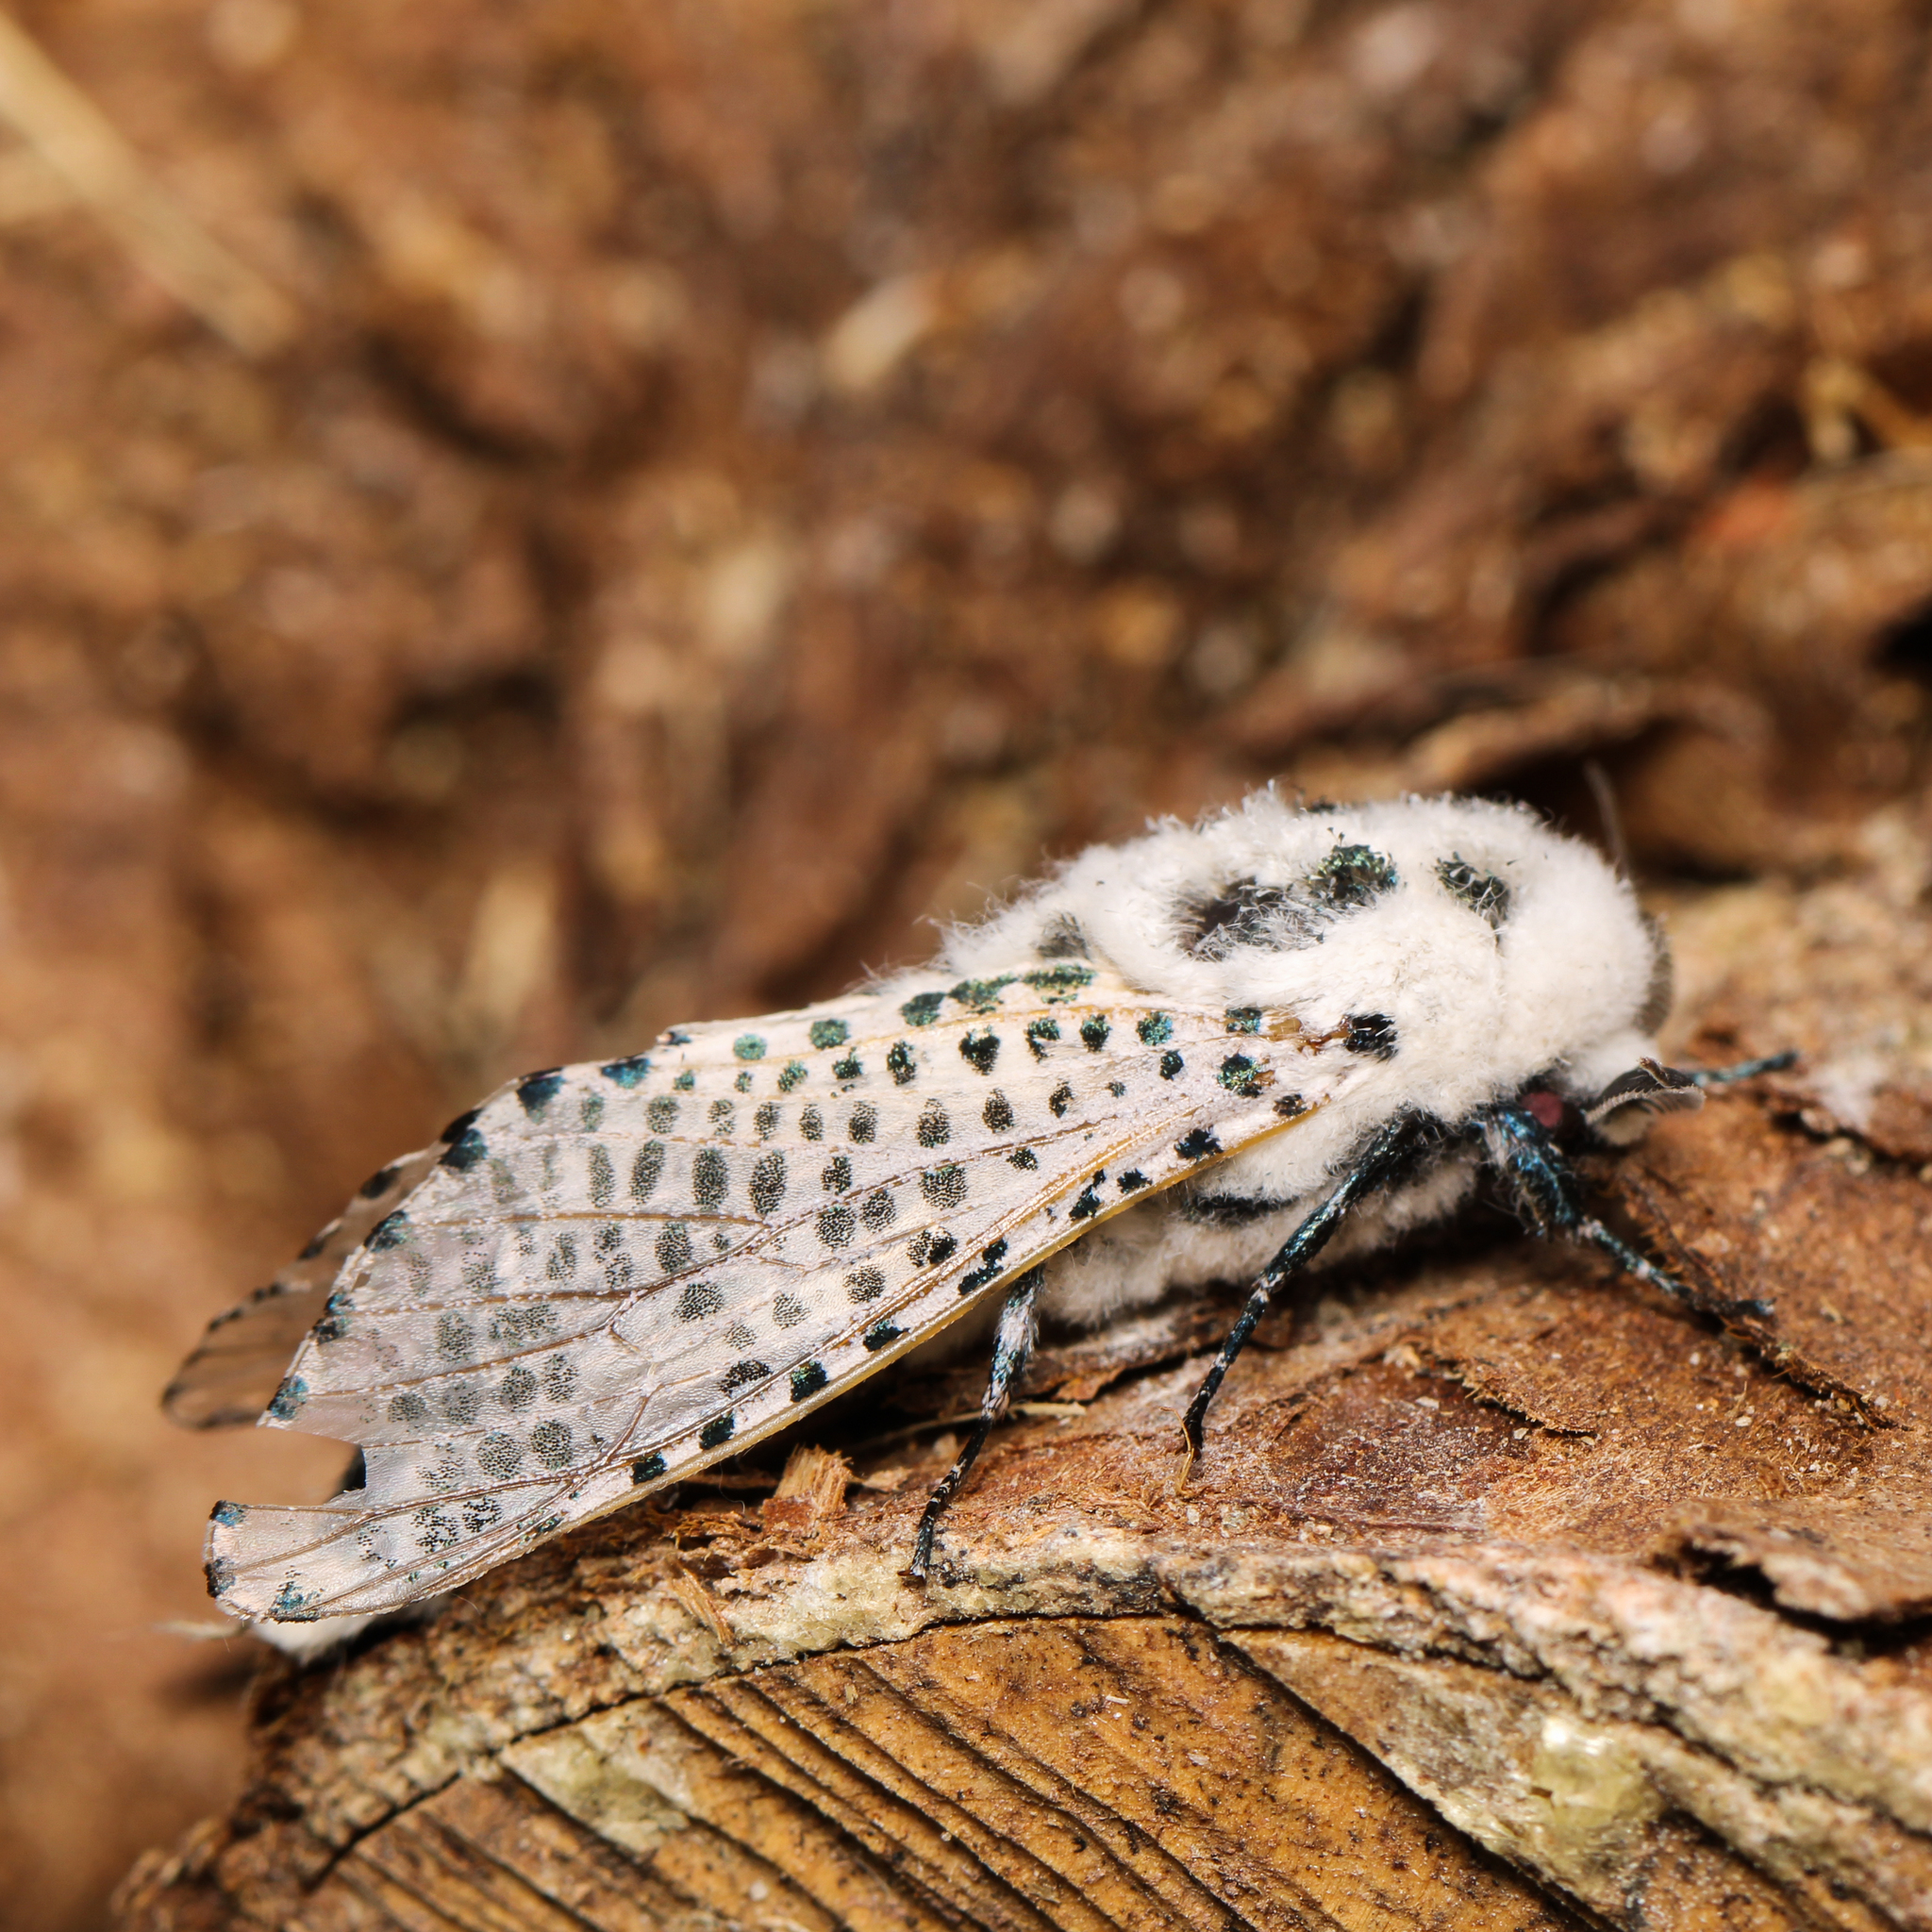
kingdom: Animalia
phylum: Arthropoda
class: Insecta
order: Lepidoptera
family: Cossidae
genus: Zeuzera
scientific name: Zeuzera pyrina
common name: Leopard moth
